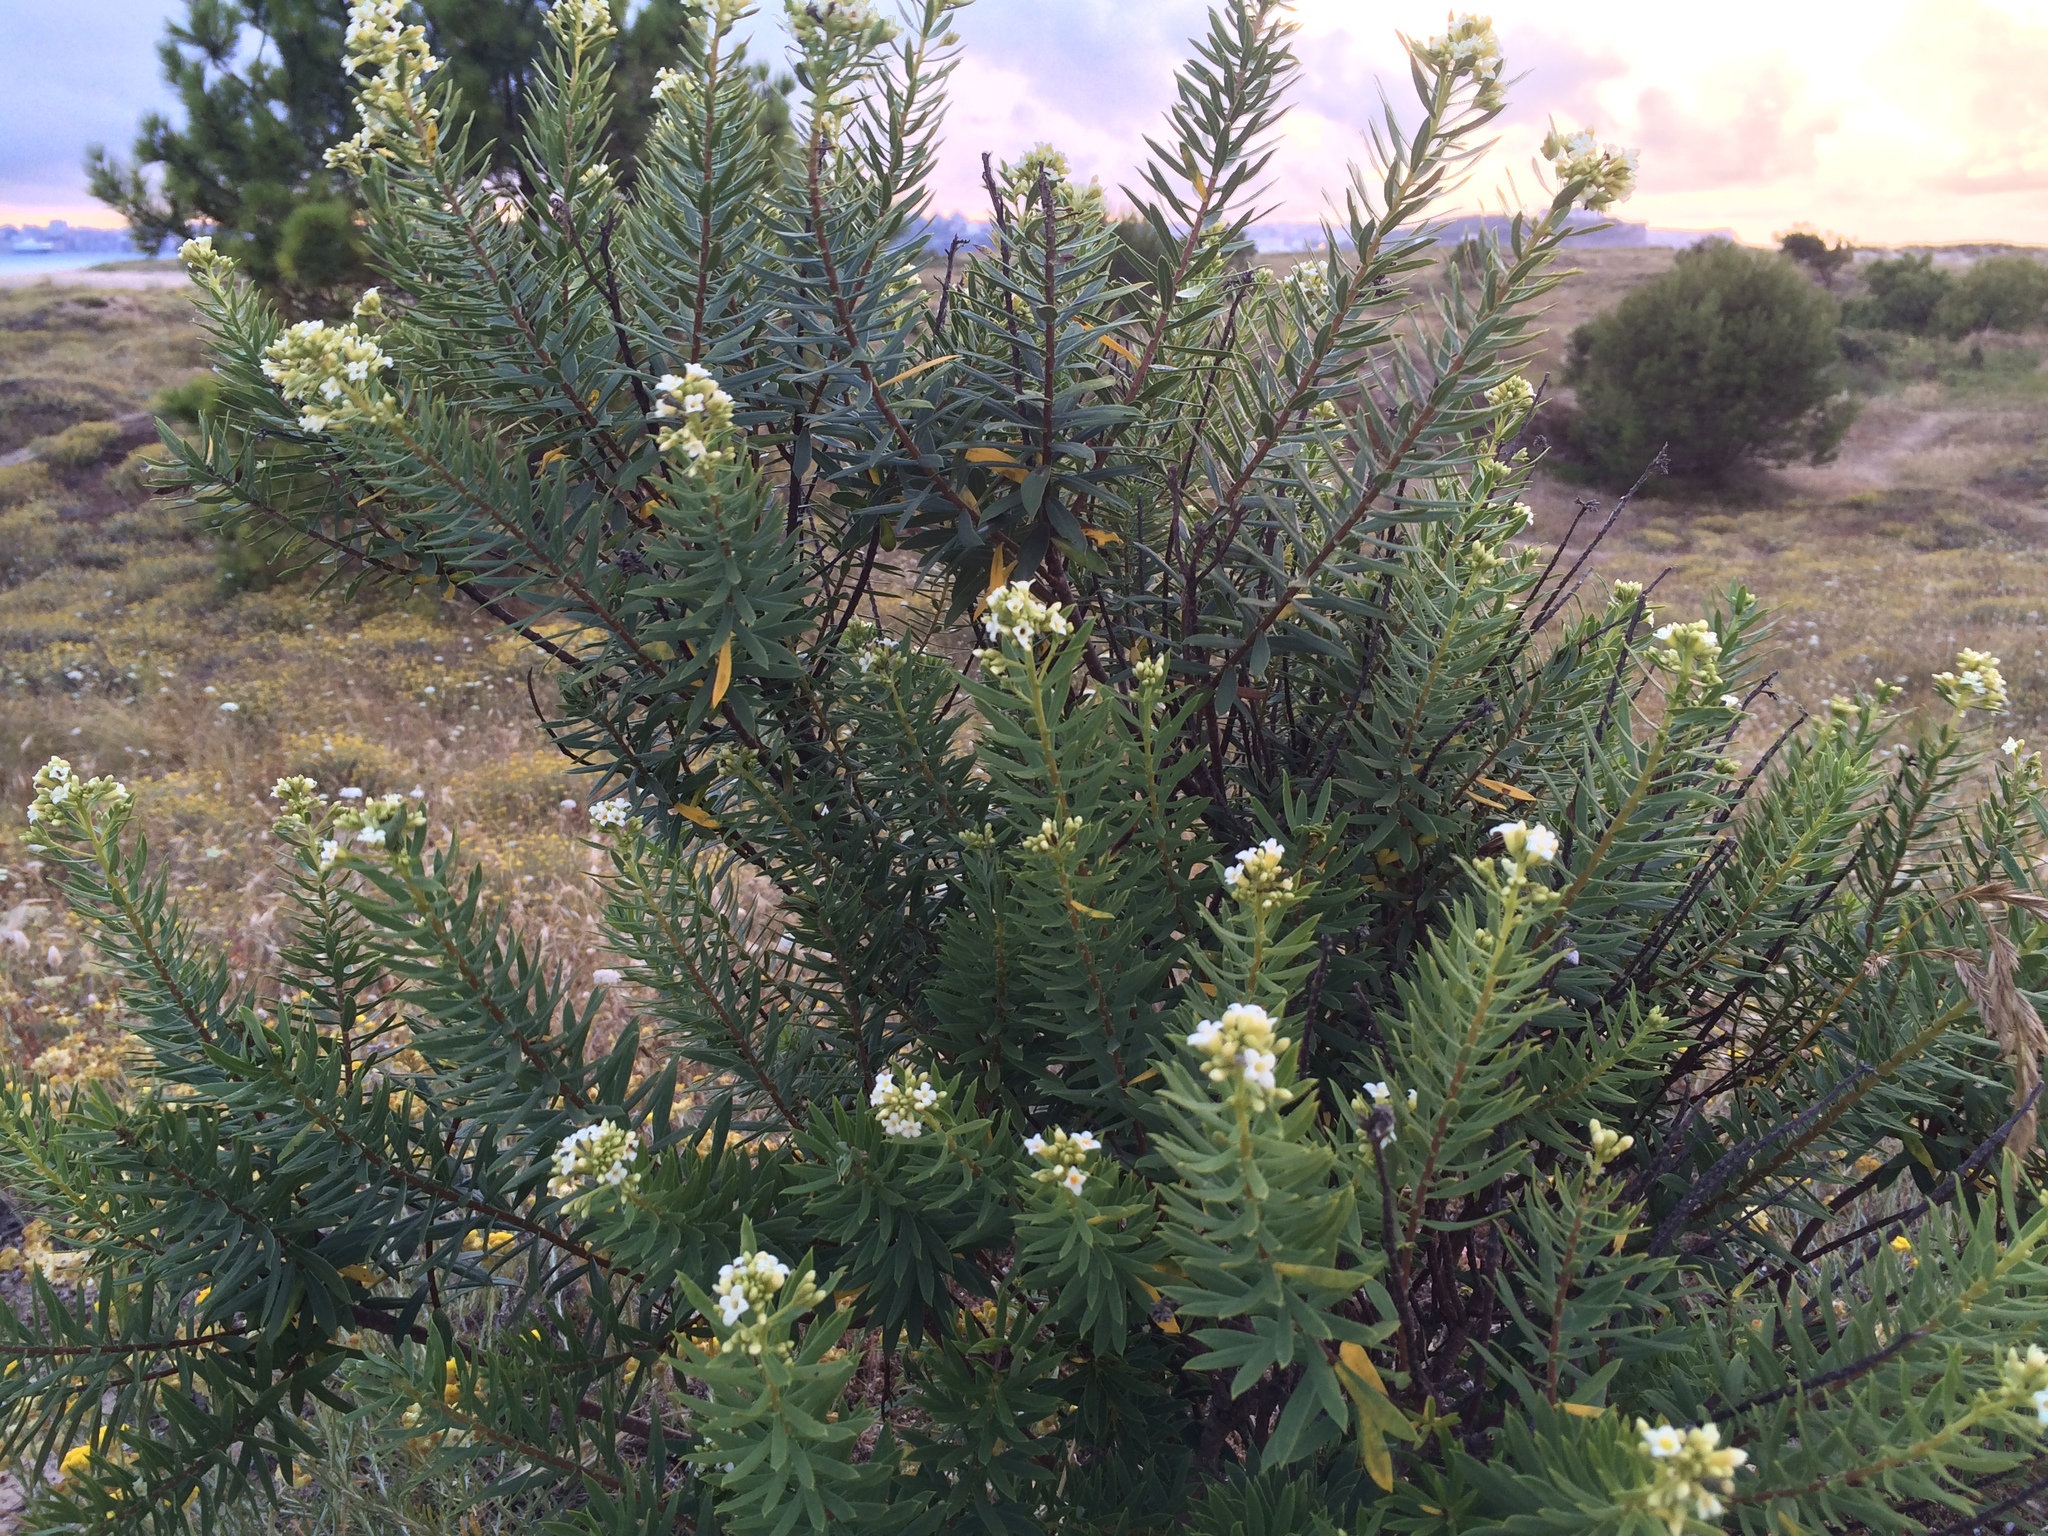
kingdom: Plantae
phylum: Tracheophyta
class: Magnoliopsida
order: Malvales
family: Thymelaeaceae
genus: Daphne
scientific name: Daphne gnidium
